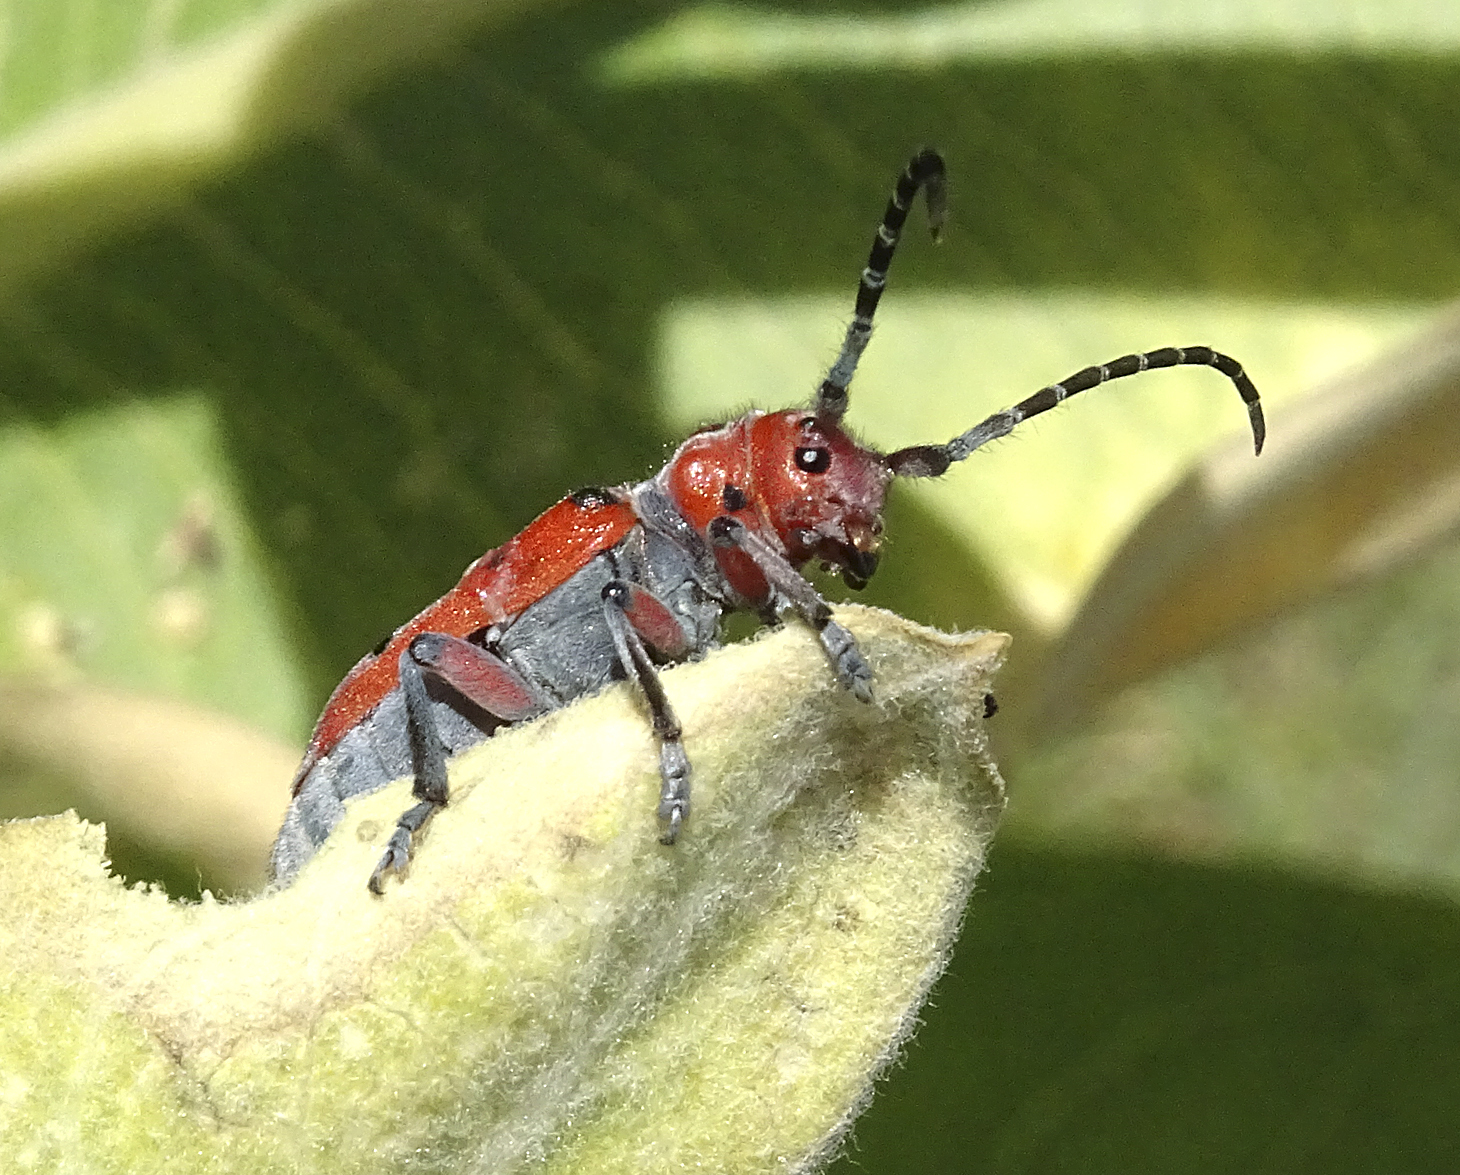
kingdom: Animalia
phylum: Arthropoda
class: Insecta
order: Coleoptera
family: Cerambycidae
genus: Tetraopes
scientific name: Tetraopes femoratus
